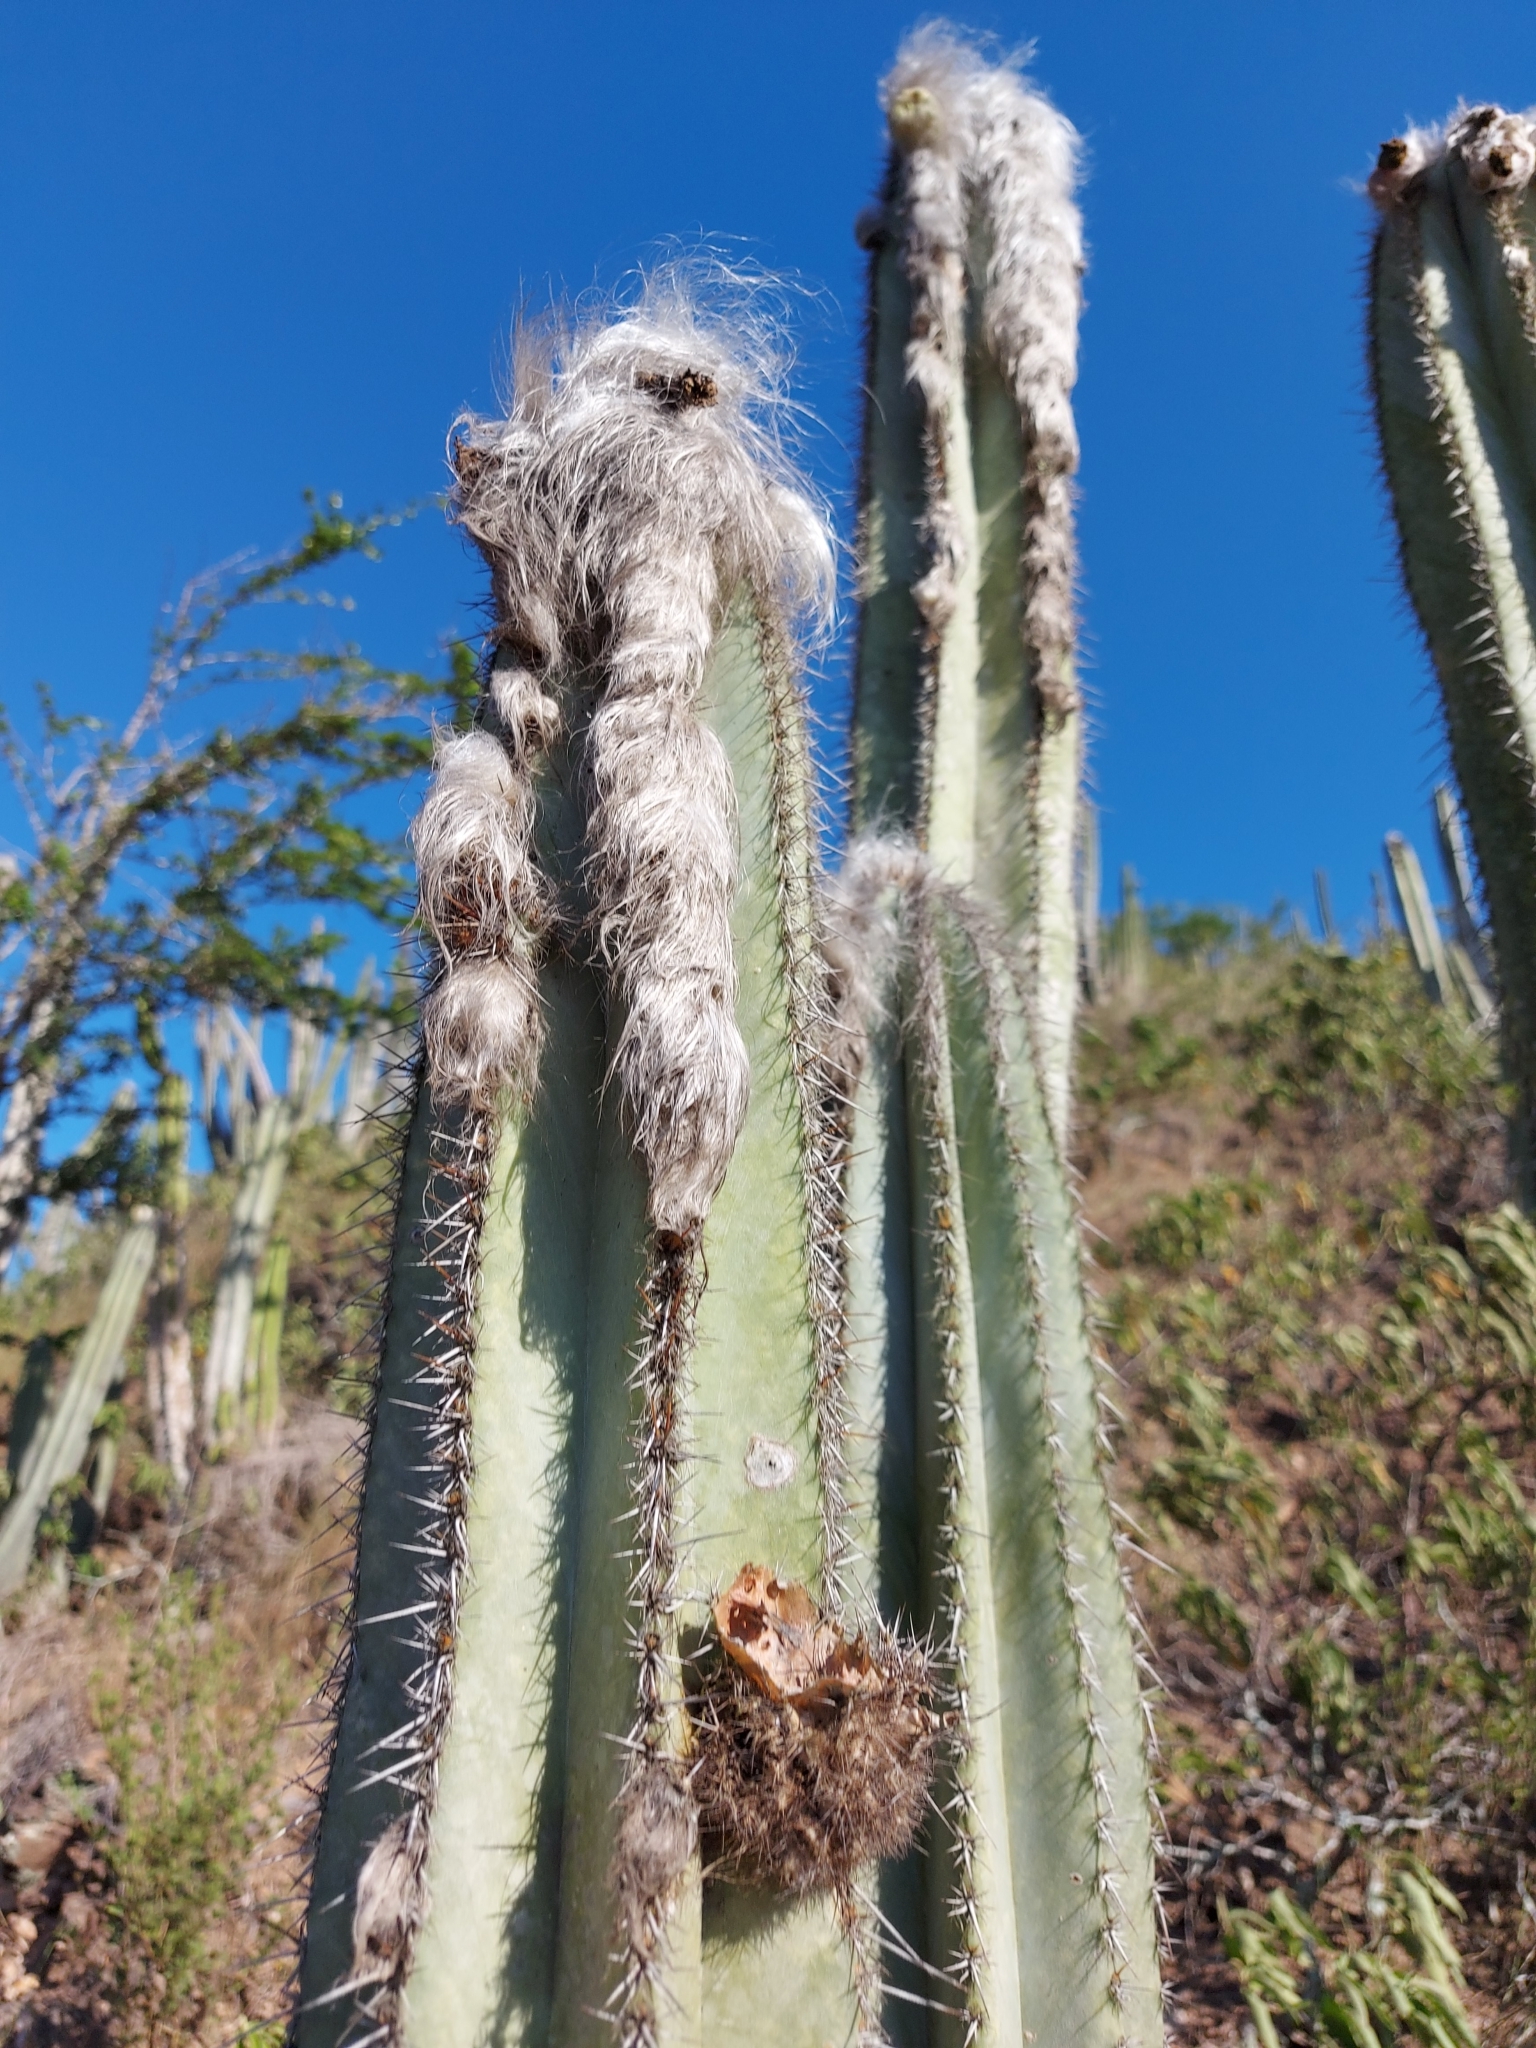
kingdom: Plantae
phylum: Tracheophyta
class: Magnoliopsida
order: Caryophyllales
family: Cactaceae
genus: Pilosocereus
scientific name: Pilosocereus ulei
